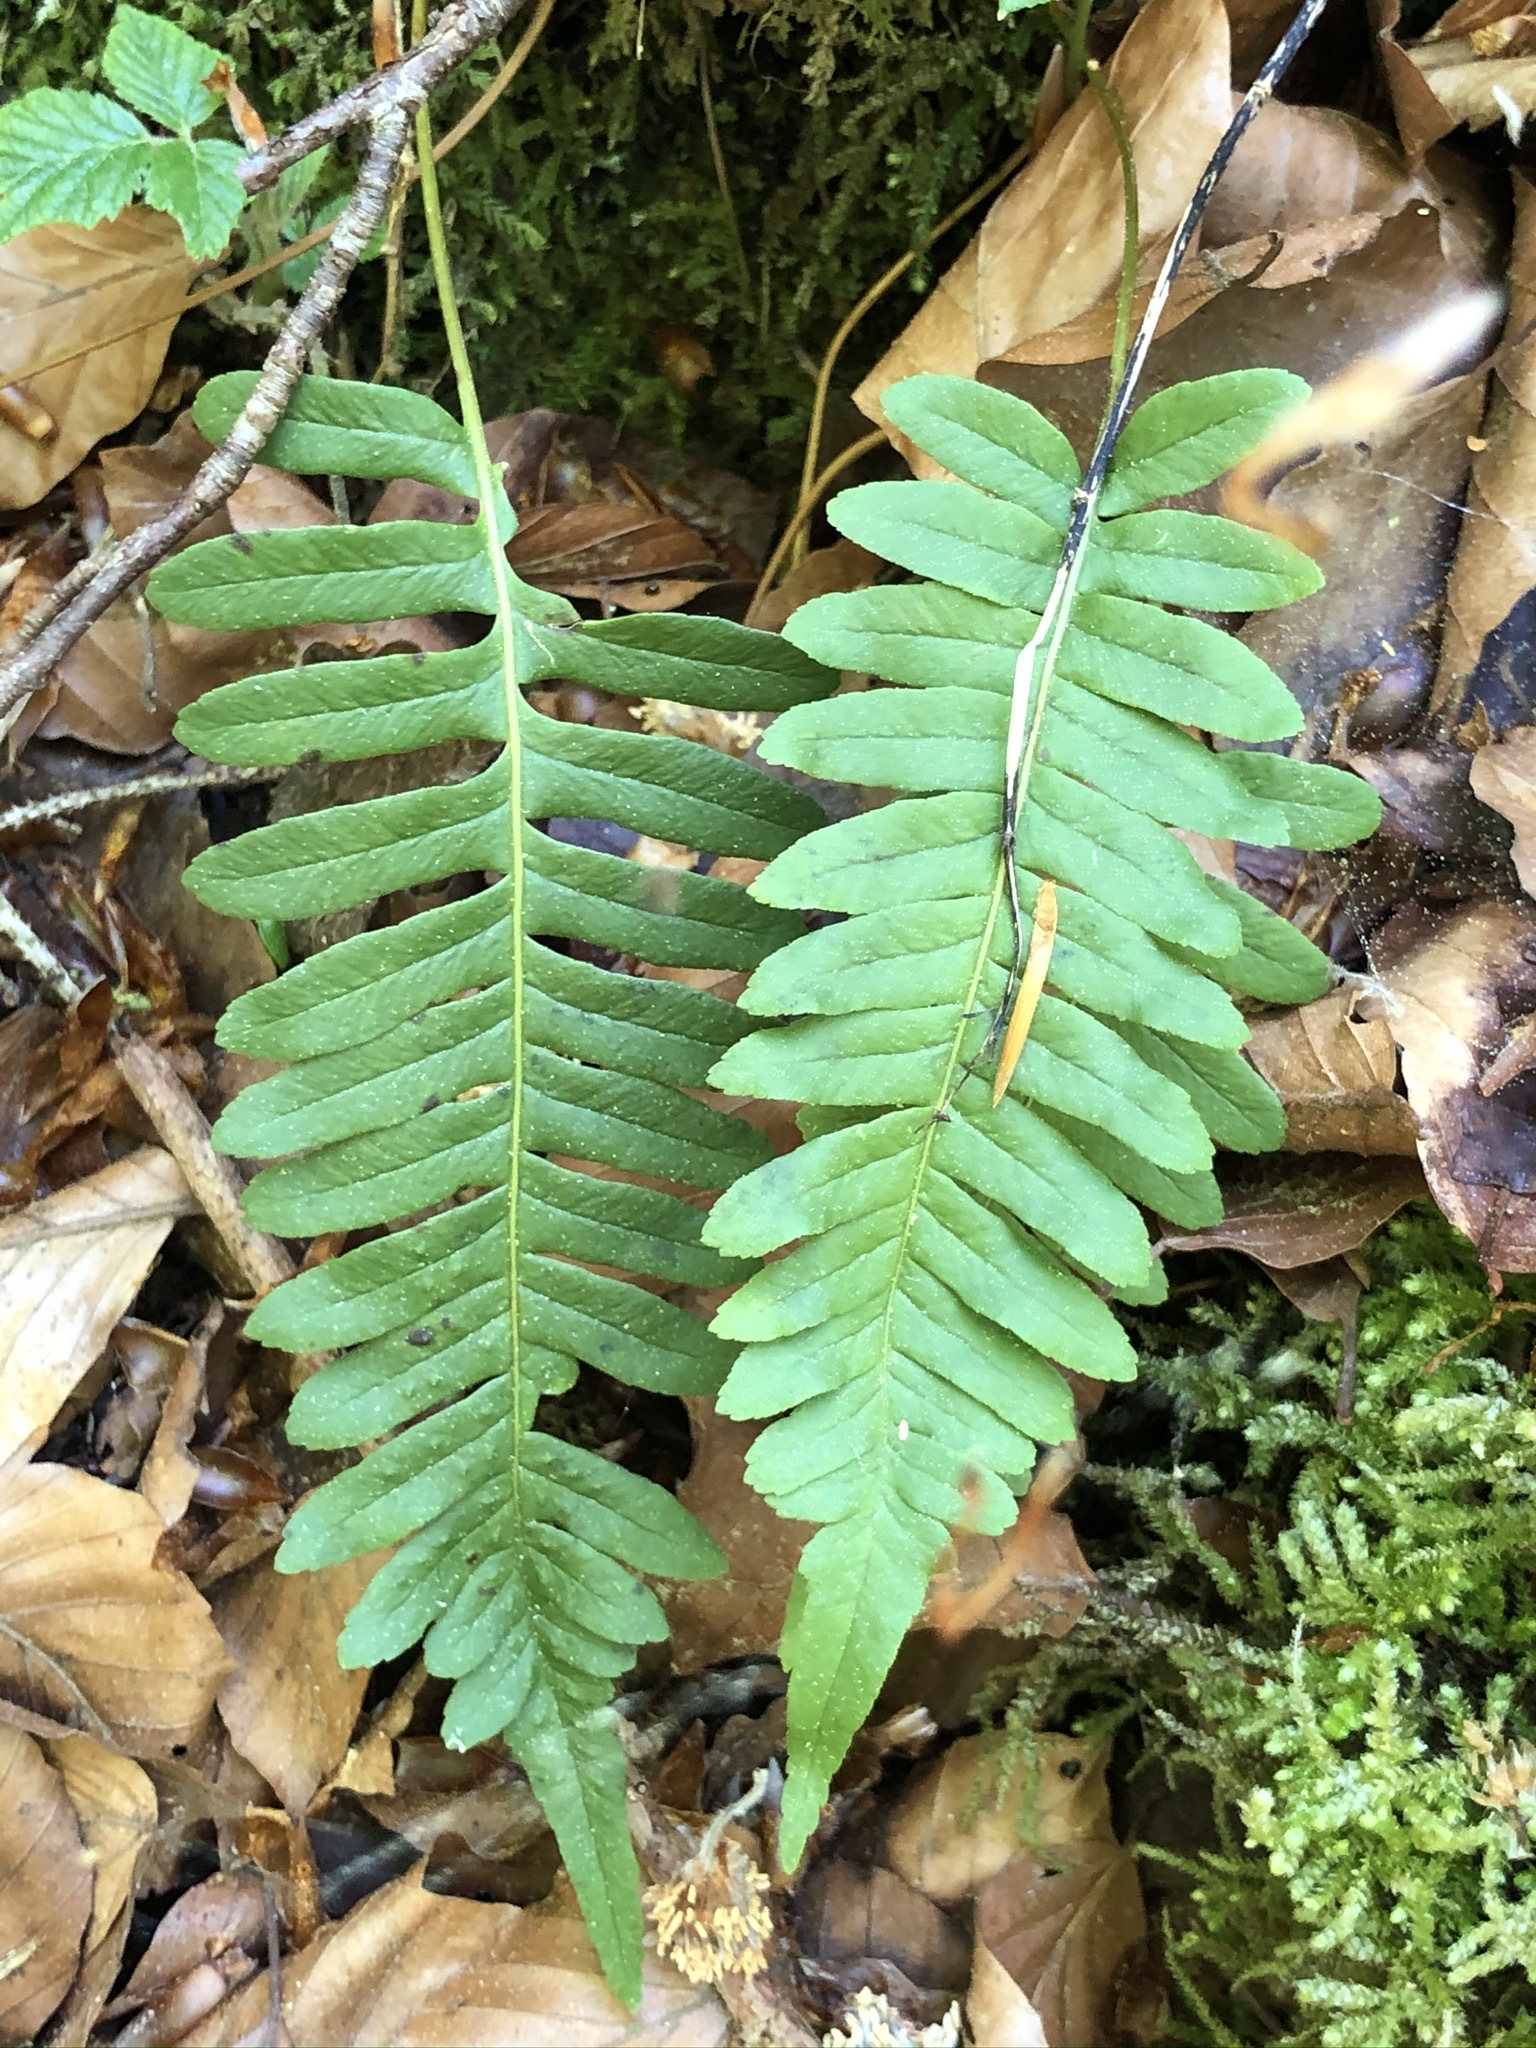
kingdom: Plantae
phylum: Tracheophyta
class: Polypodiopsida
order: Polypodiales
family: Polypodiaceae
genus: Polypodium
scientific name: Polypodium vulgare
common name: Common polypody
